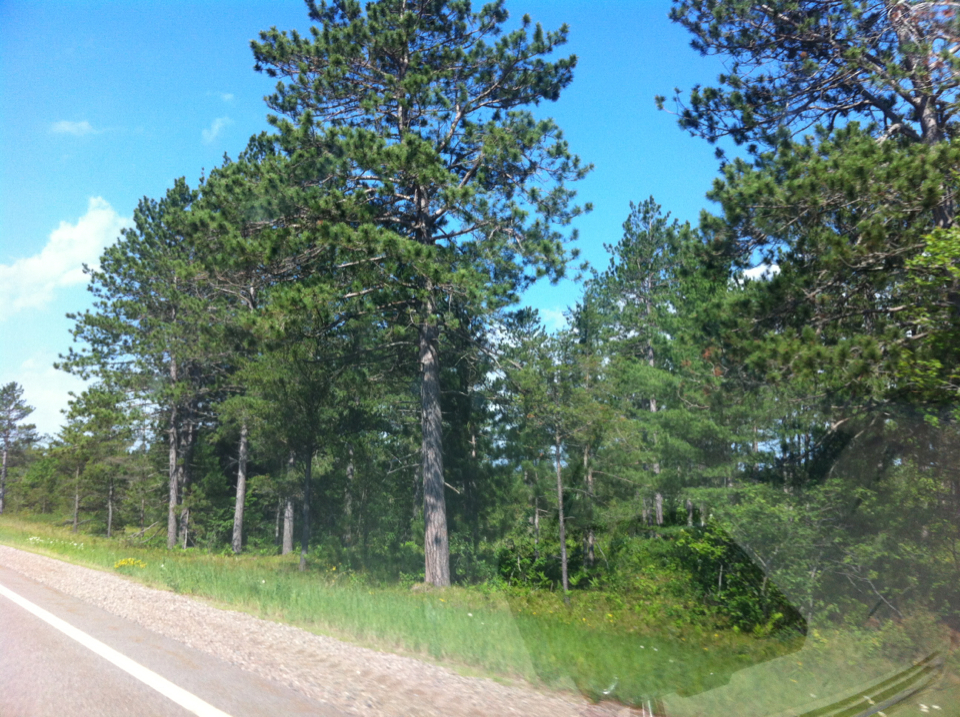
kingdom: Plantae
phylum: Tracheophyta
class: Pinopsida
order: Pinales
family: Pinaceae
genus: Pinus
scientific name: Pinus
